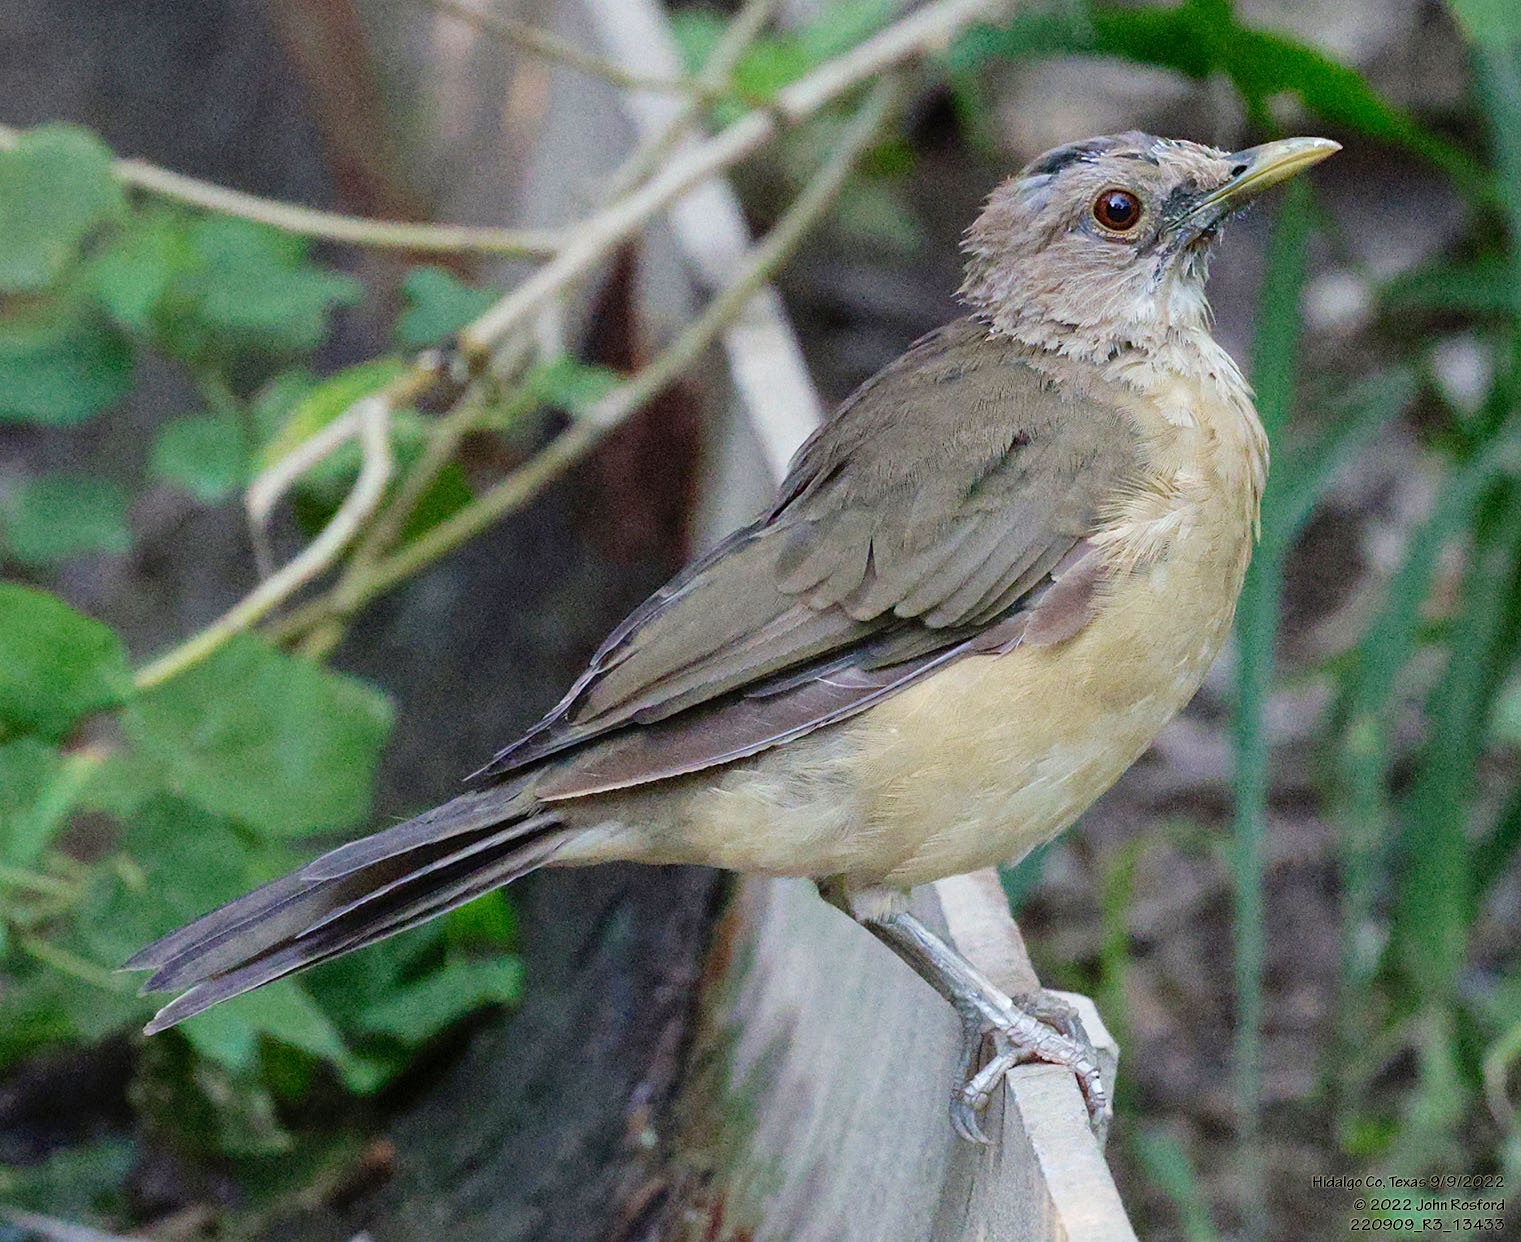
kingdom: Animalia
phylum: Chordata
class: Aves
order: Passeriformes
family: Turdidae
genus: Turdus
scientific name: Turdus grayi
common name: Clay-colored thrush
